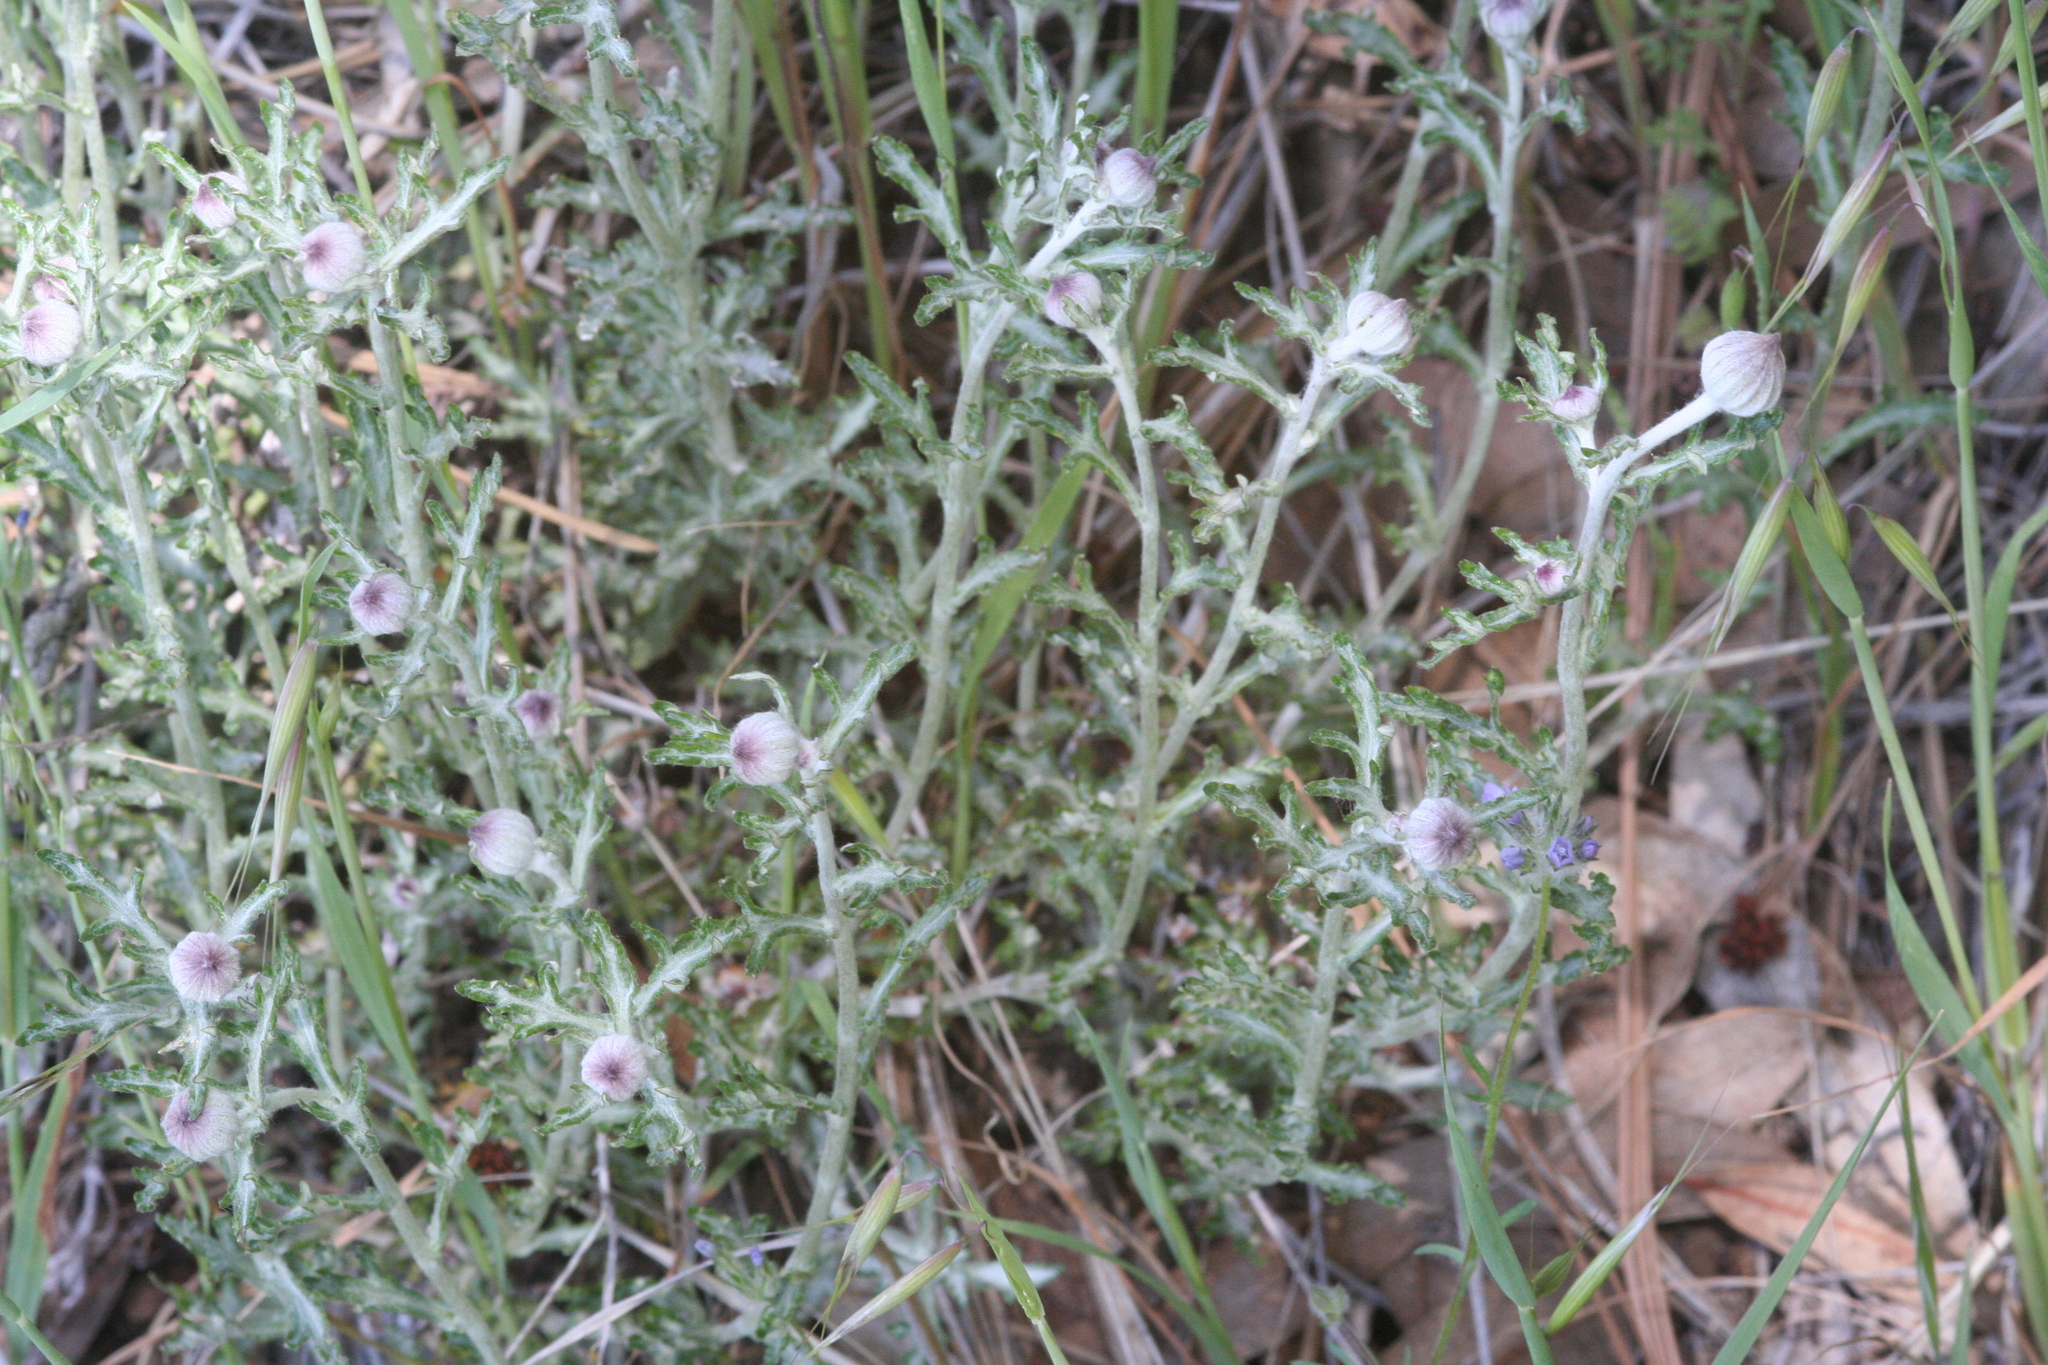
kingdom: Plantae
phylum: Tracheophyta
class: Magnoliopsida
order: Asterales
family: Asteraceae
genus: Eriophyllum
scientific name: Eriophyllum lanatum
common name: Common woolly-sunflower
